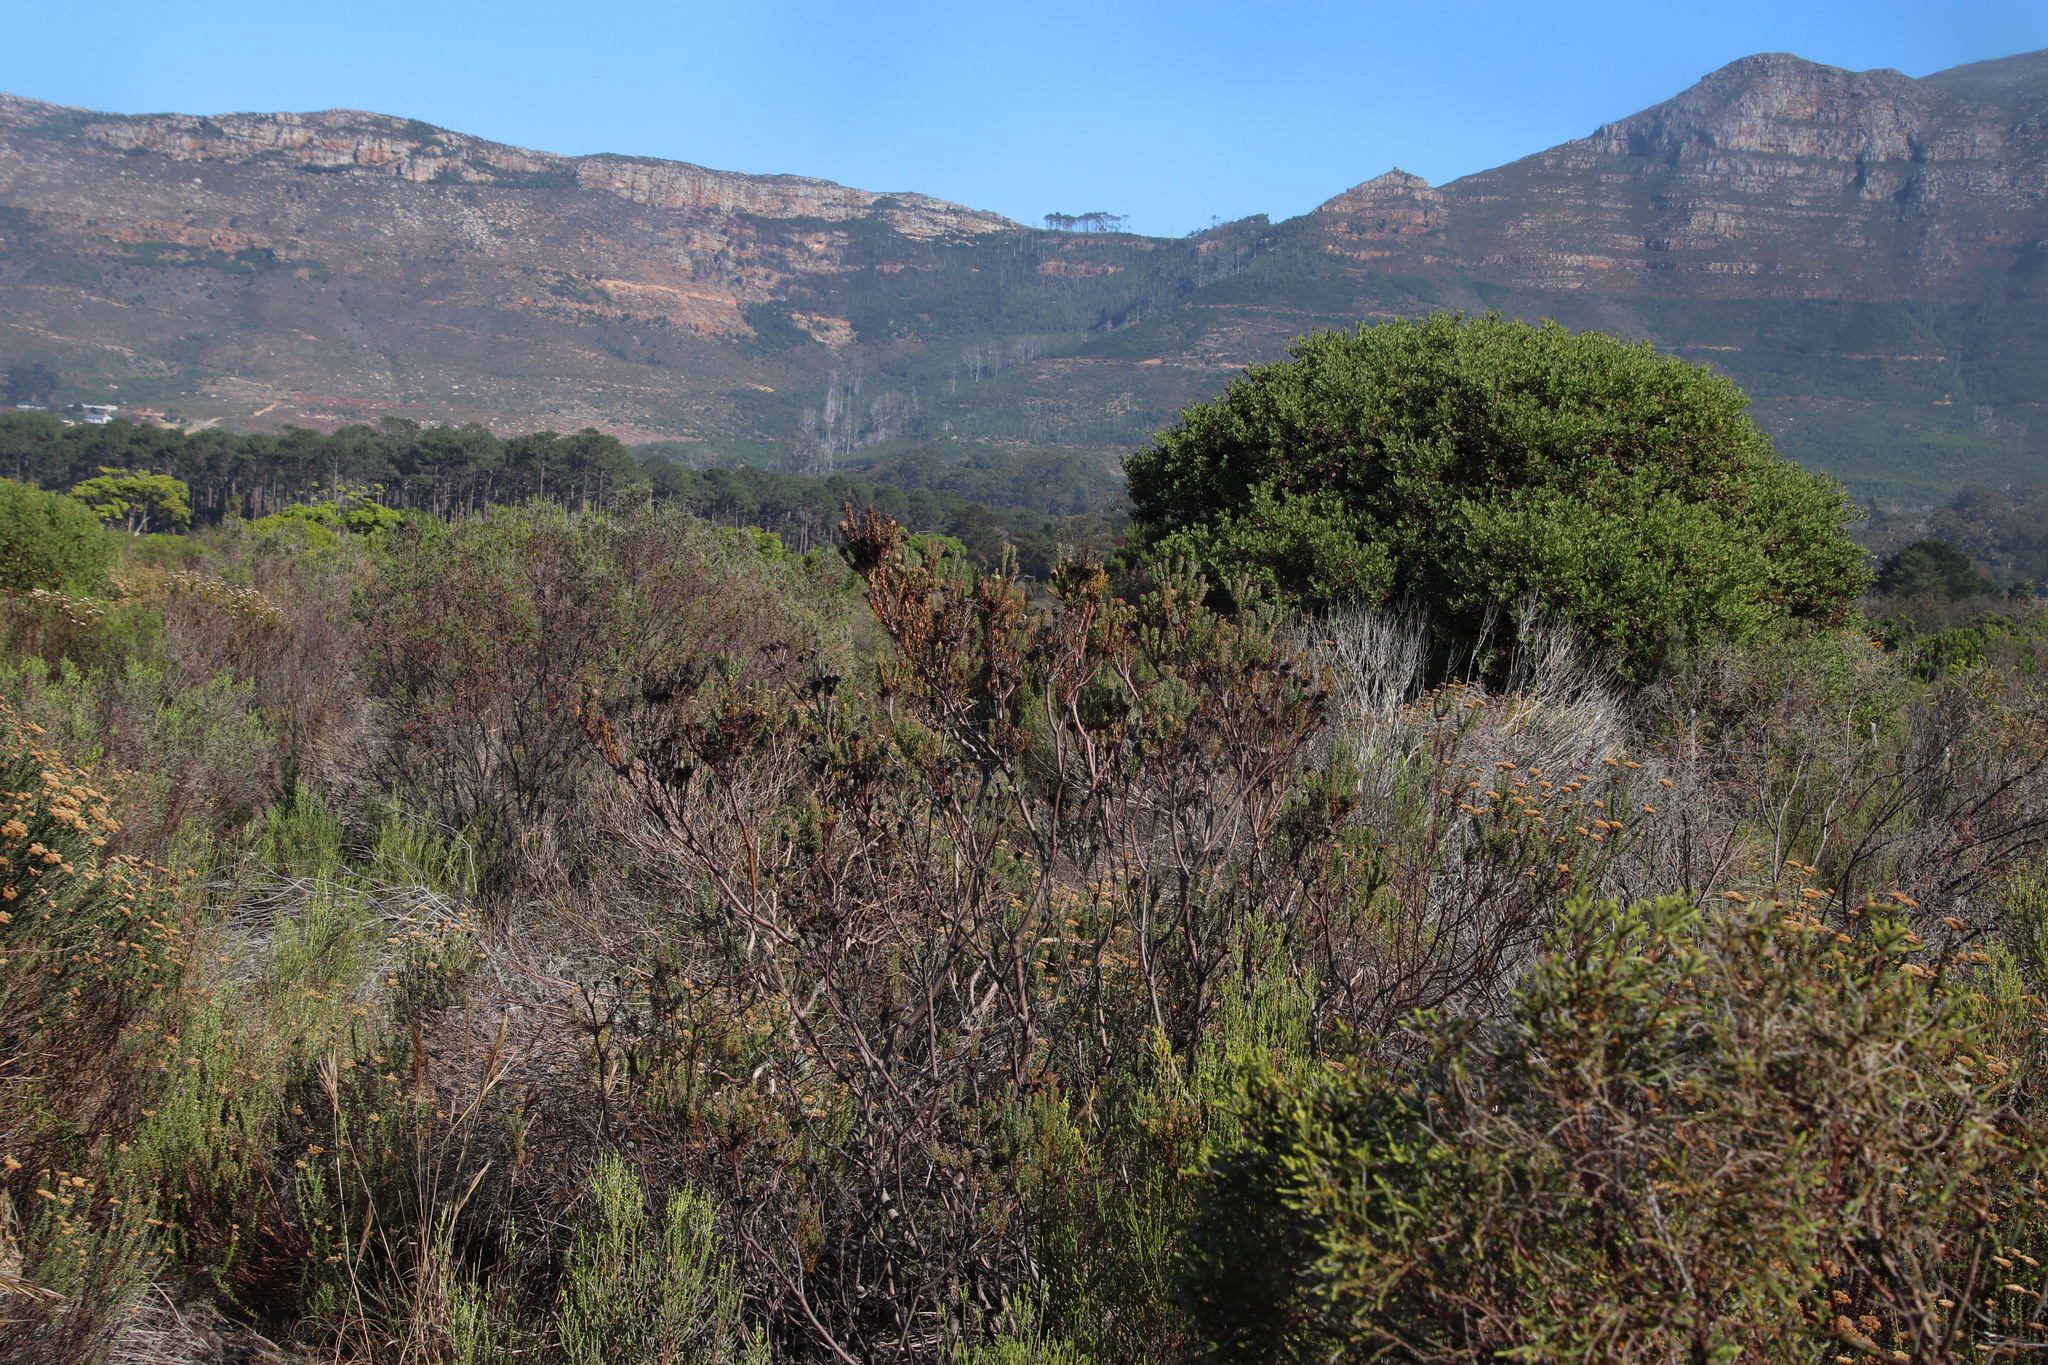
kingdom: Plantae
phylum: Tracheophyta
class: Magnoliopsida
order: Proteales
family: Proteaceae
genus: Leucadendron
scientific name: Leucadendron levisanus
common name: Cape flats conebush
